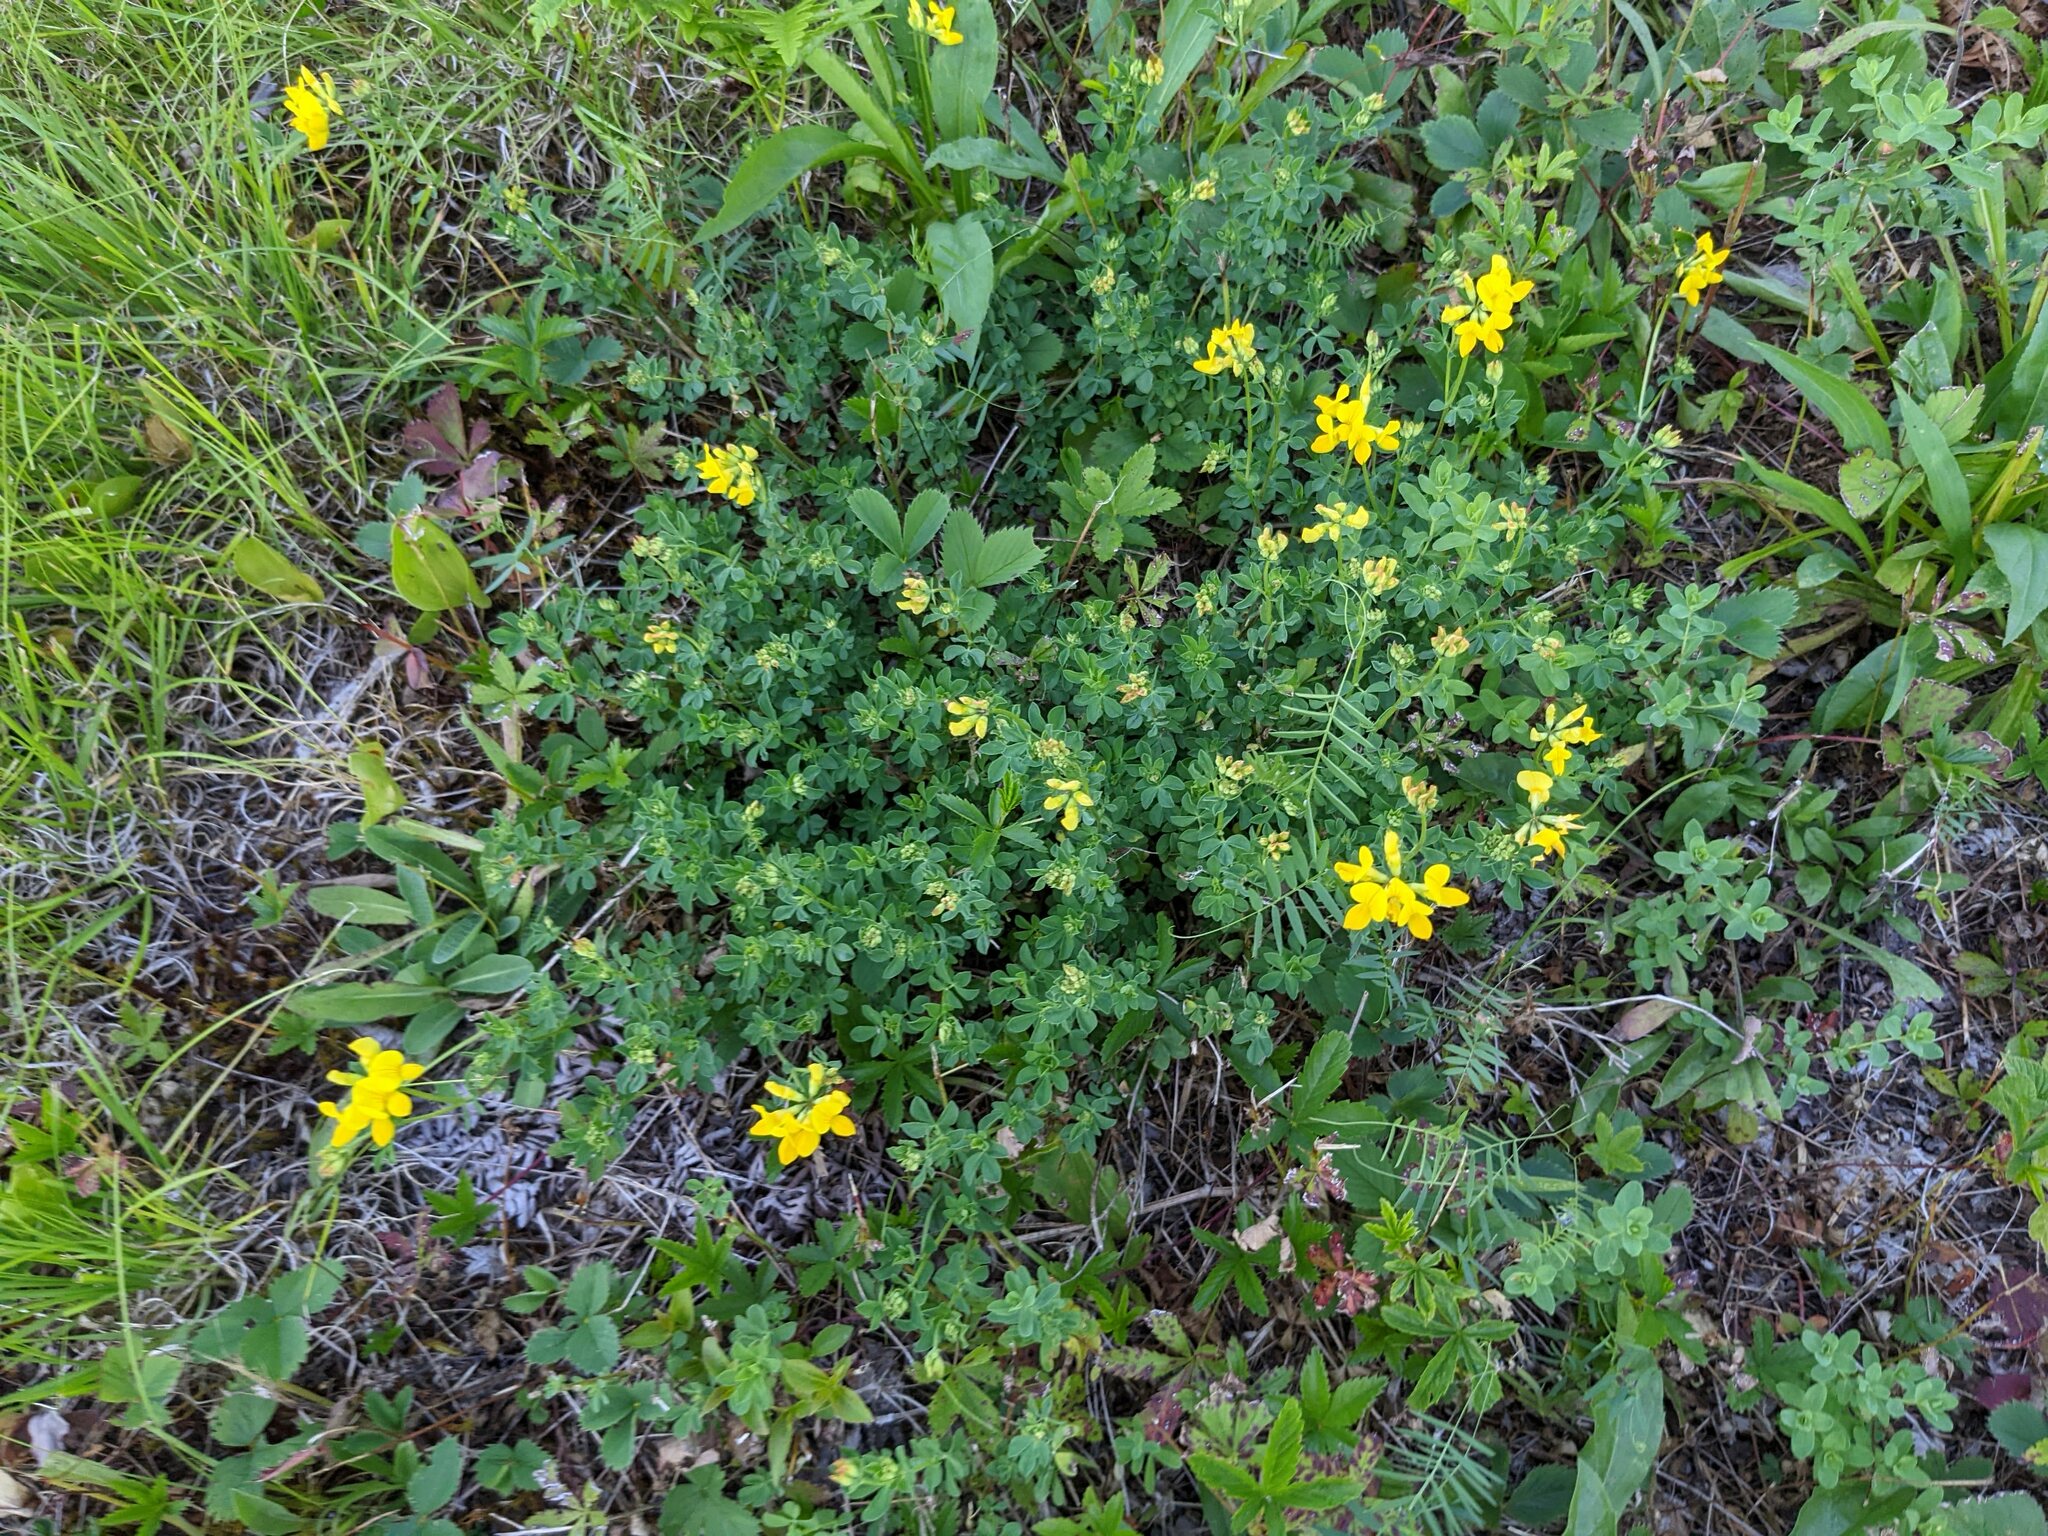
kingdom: Plantae
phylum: Tracheophyta
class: Magnoliopsida
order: Fabales
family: Fabaceae
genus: Lotus
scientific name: Lotus corniculatus
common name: Common bird's-foot-trefoil
